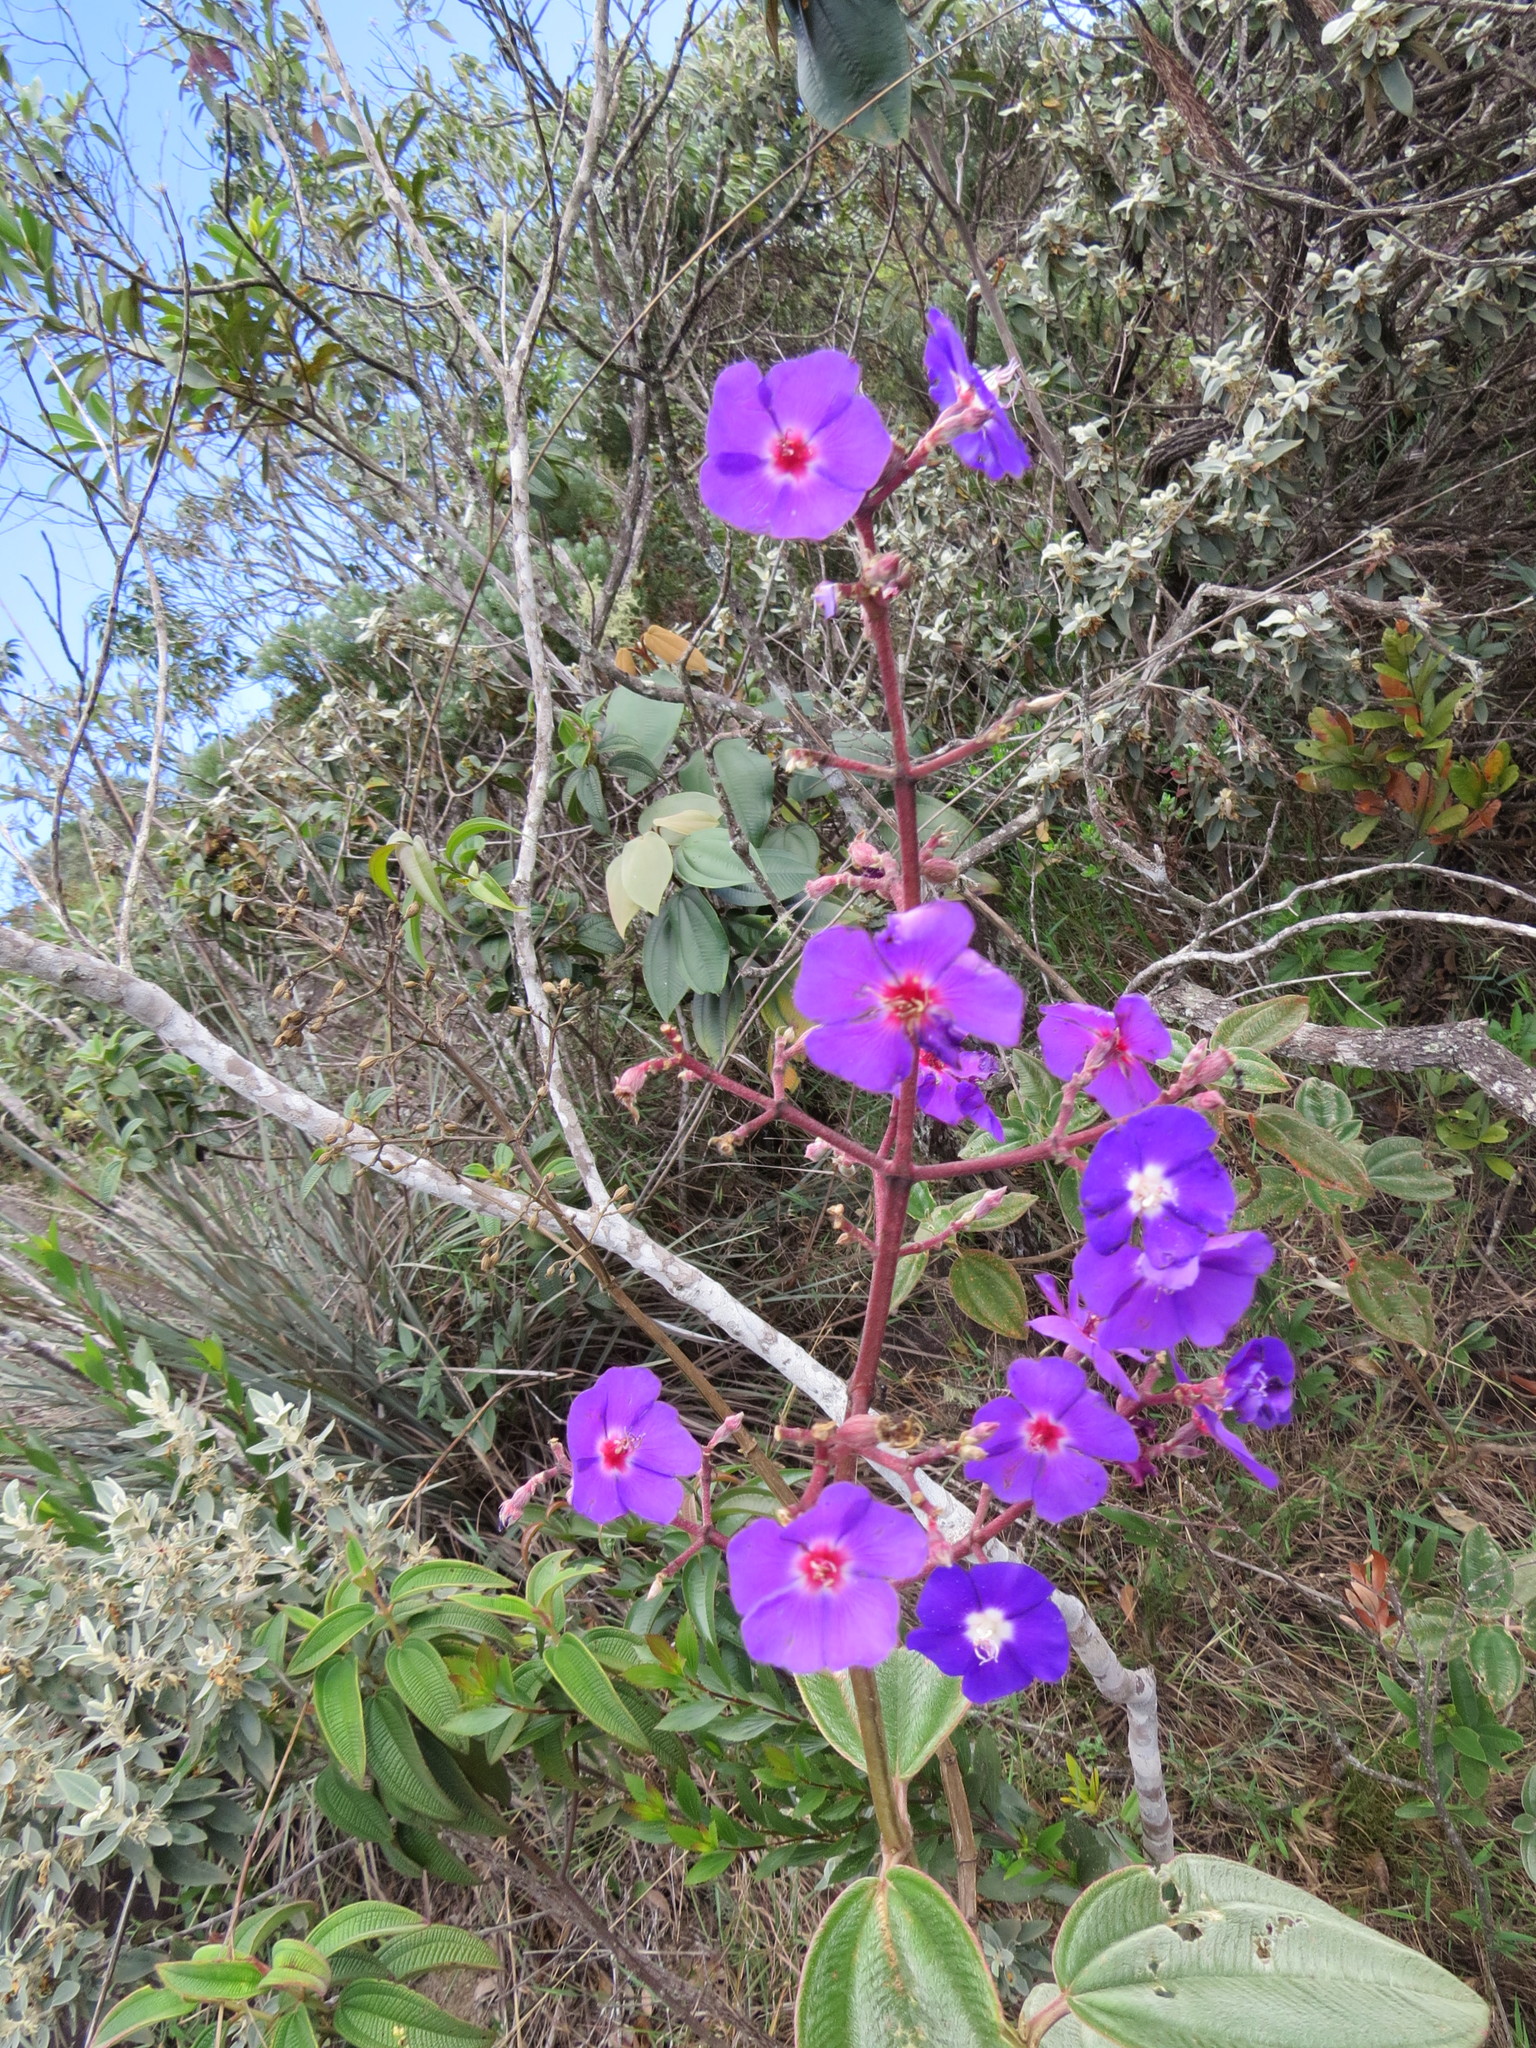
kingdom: Plantae
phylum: Tracheophyta
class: Magnoliopsida
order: Myrtales
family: Melastomataceae
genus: Pleroma
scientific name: Pleroma heteromallum
